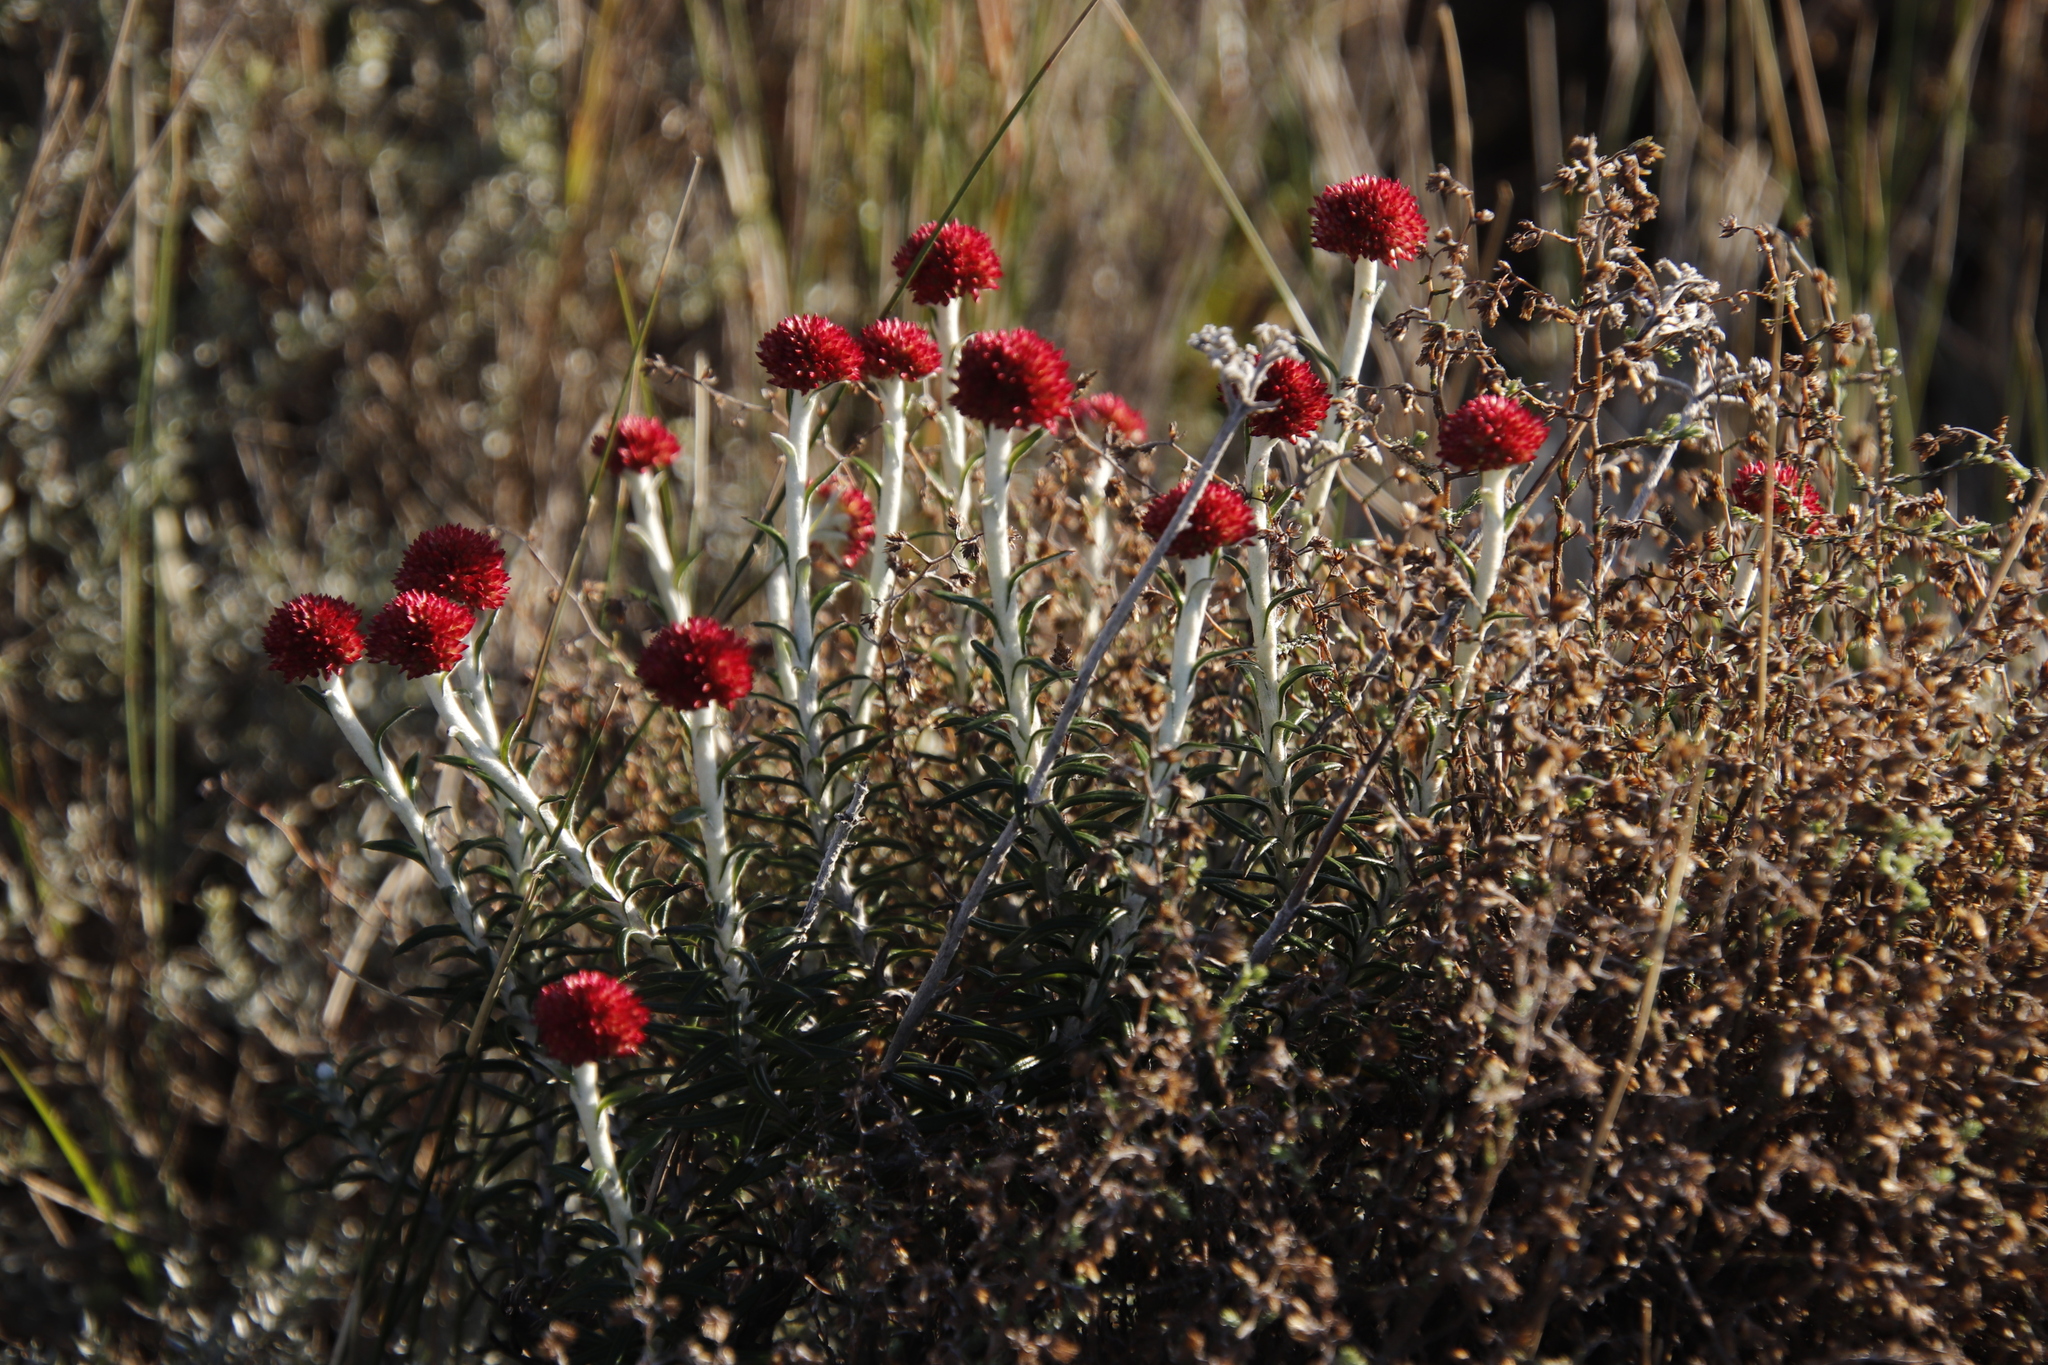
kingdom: Plantae
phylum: Tracheophyta
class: Magnoliopsida
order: Asterales
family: Asteraceae
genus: Anaxeton
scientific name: Anaxeton arborescens
